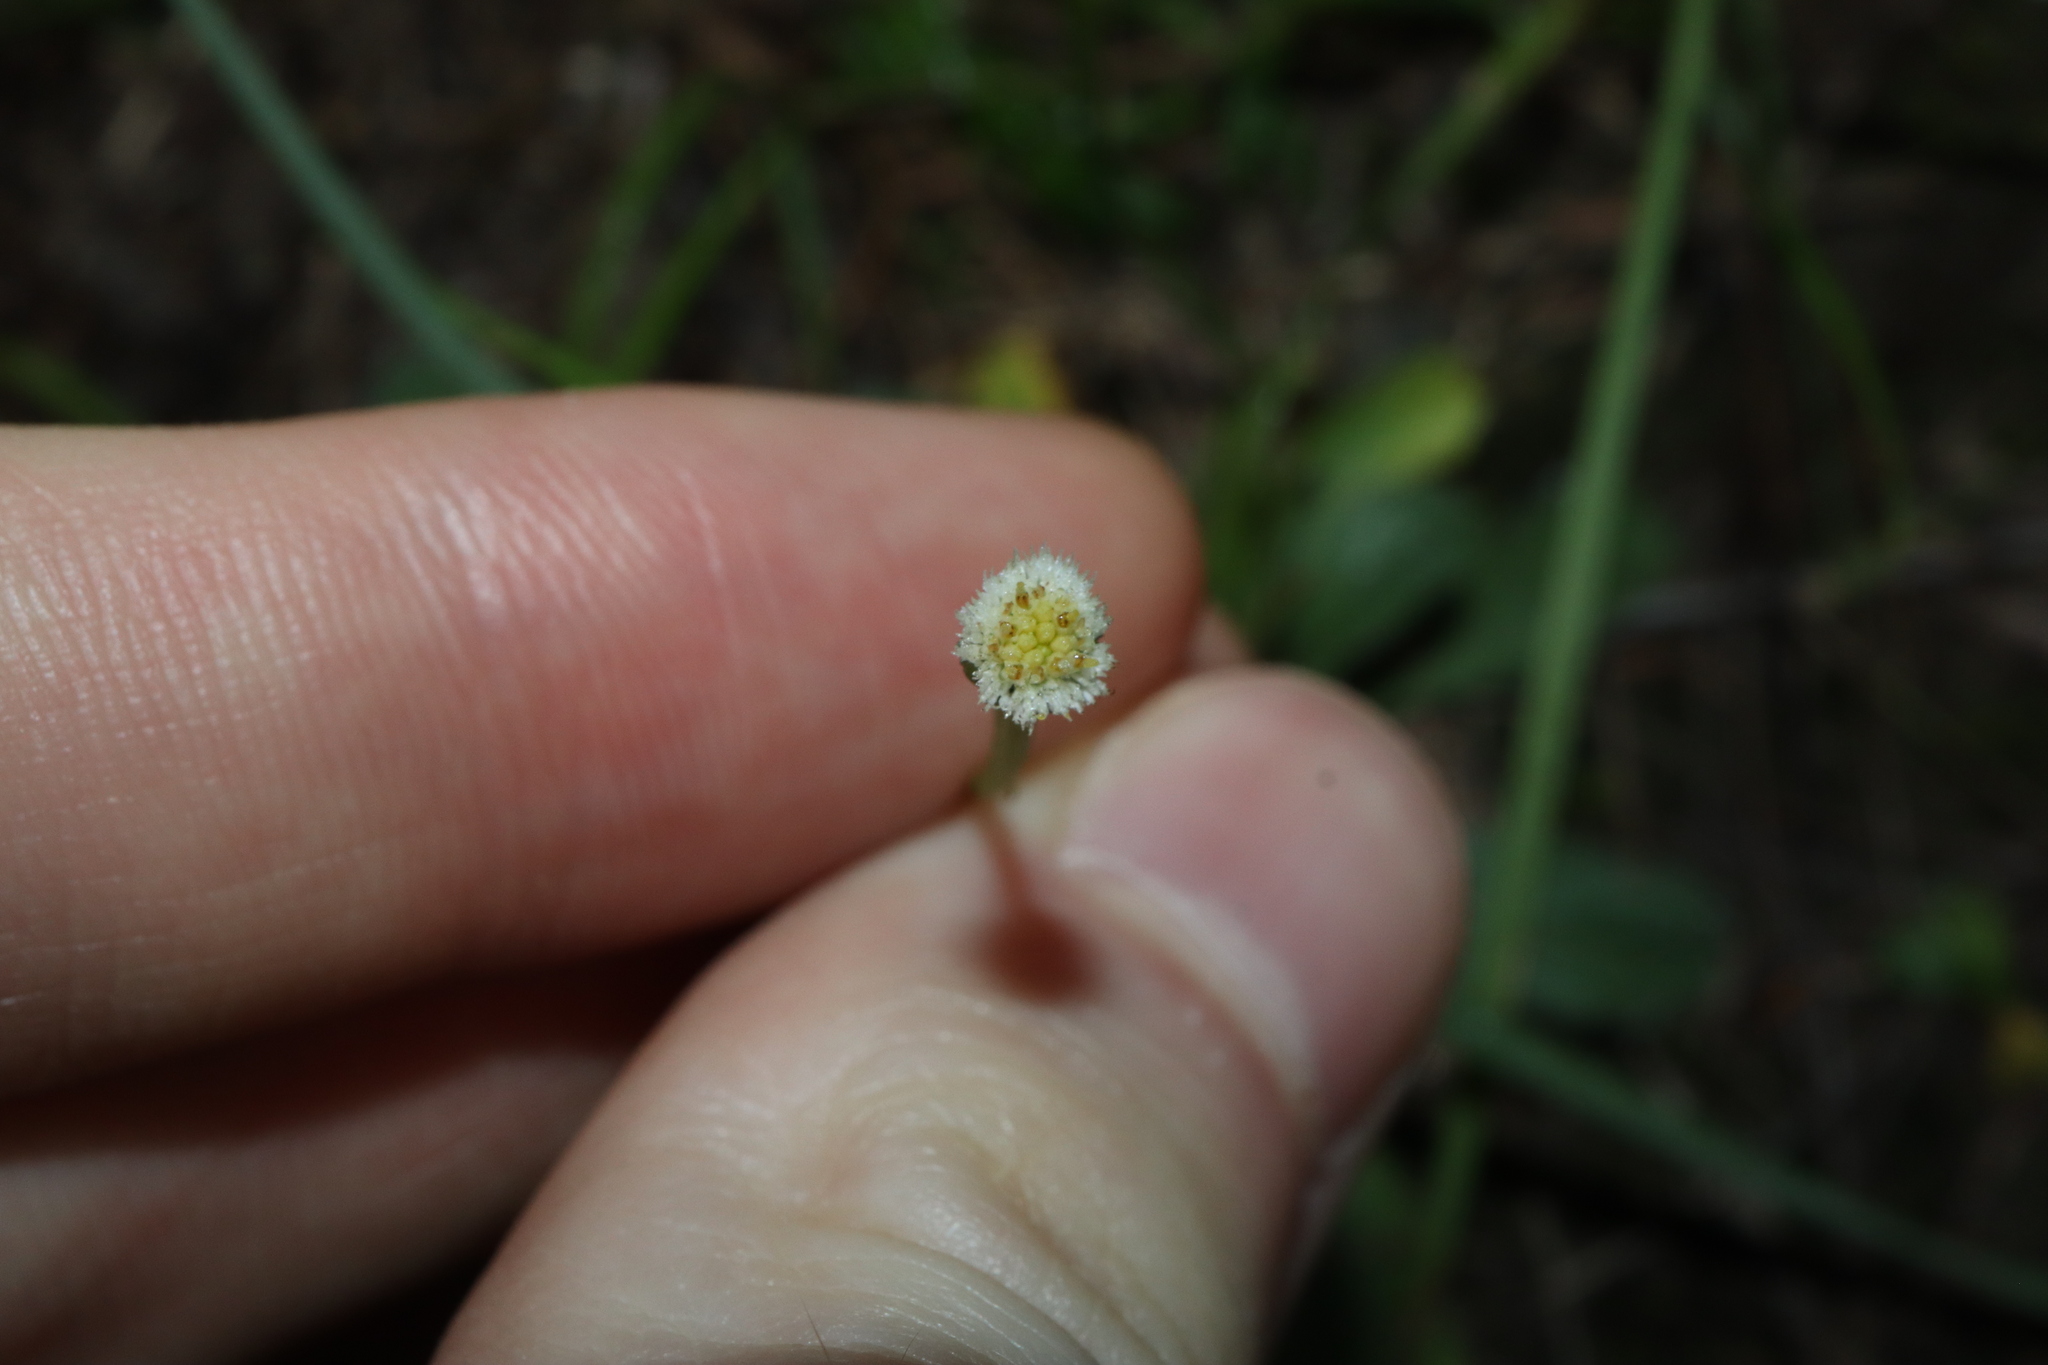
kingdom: Plantae
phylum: Tracheophyta
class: Magnoliopsida
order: Asterales
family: Asteraceae
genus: Solenogyne
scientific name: Solenogyne bellioides
